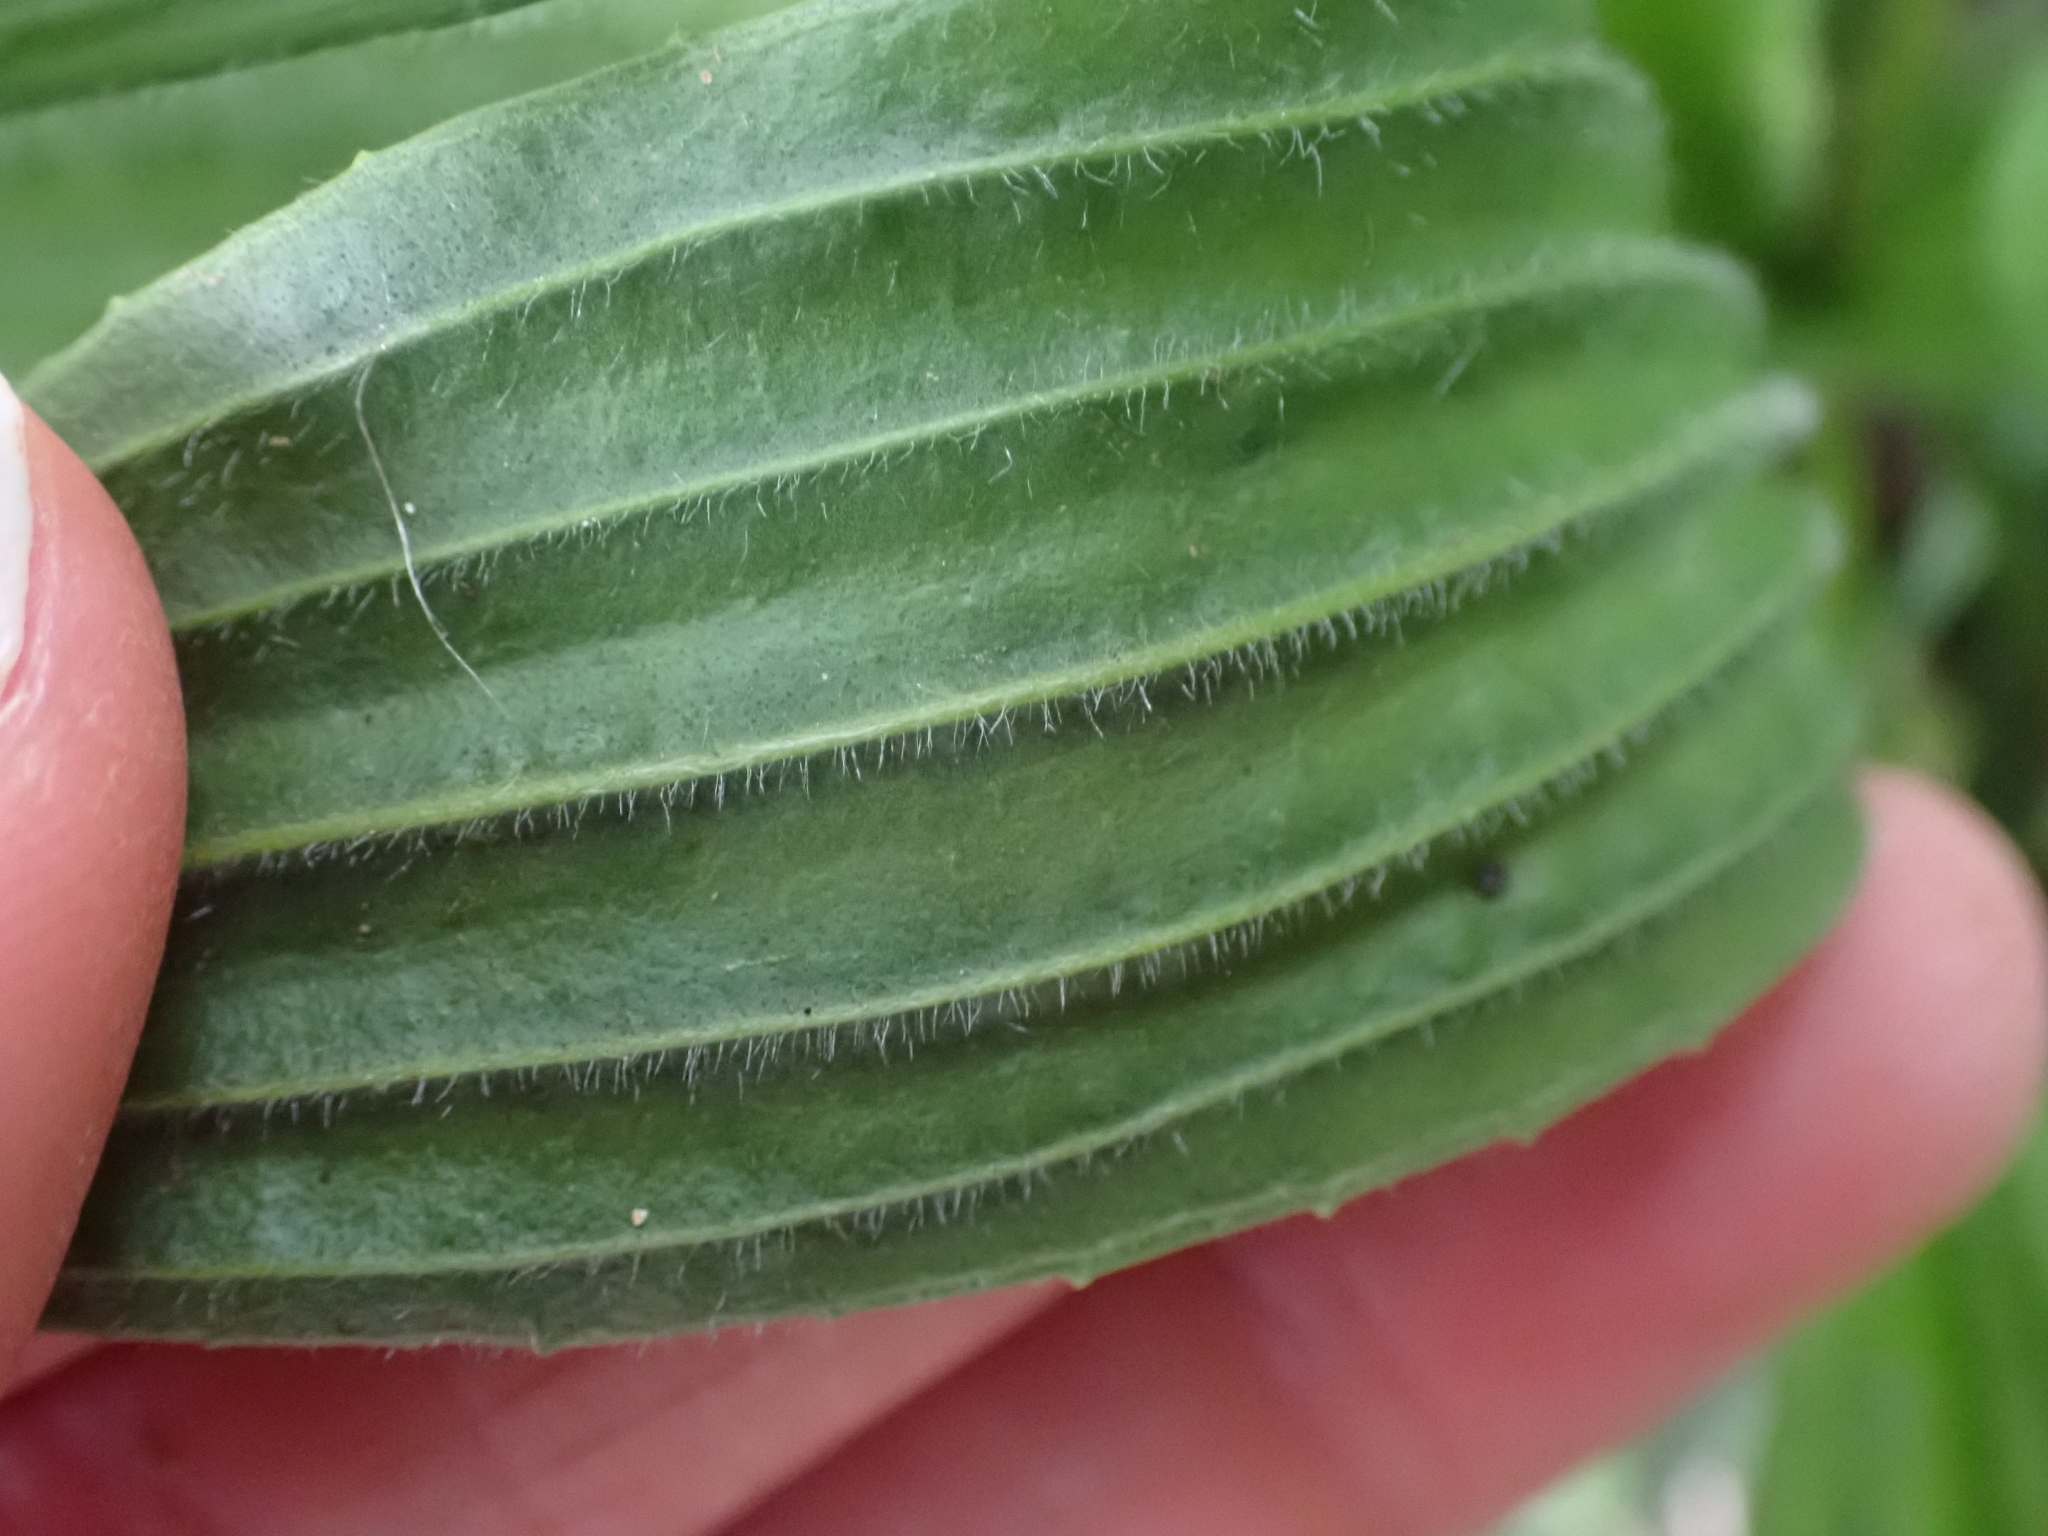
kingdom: Plantae
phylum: Tracheophyta
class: Magnoliopsida
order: Lamiales
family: Plantaginaceae
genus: Plantago
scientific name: Plantago lanceolata
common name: Ribwort plantain
